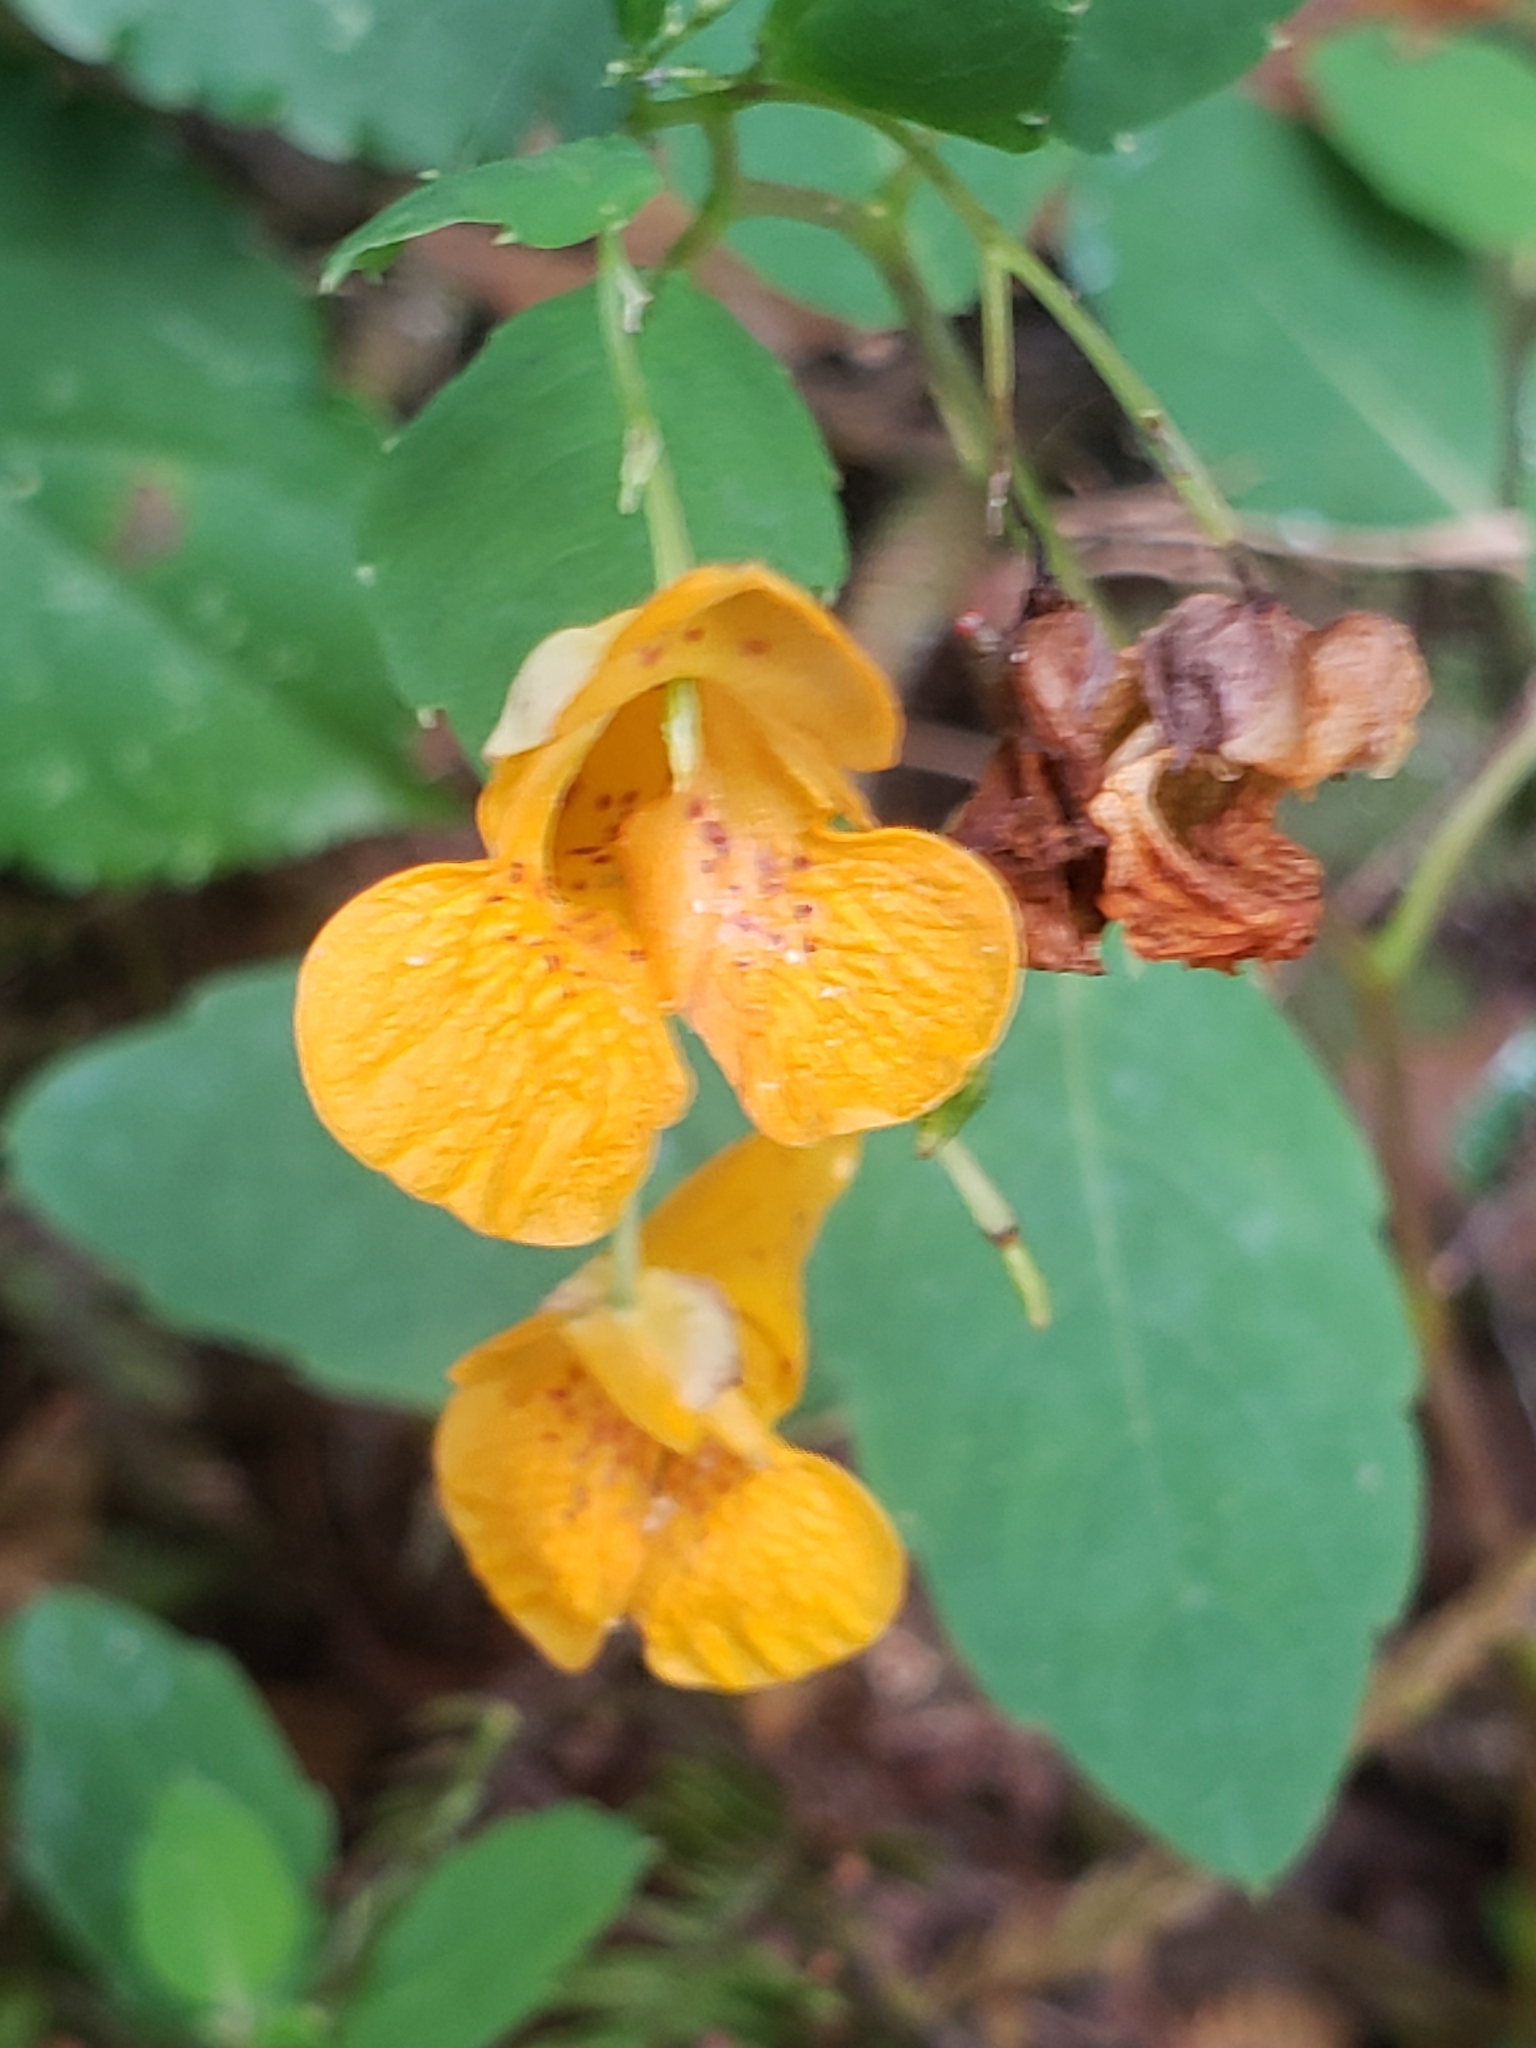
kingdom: Plantae
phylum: Tracheophyta
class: Magnoliopsida
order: Ericales
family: Balsaminaceae
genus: Impatiens
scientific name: Impatiens capensis
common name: Orange balsam
